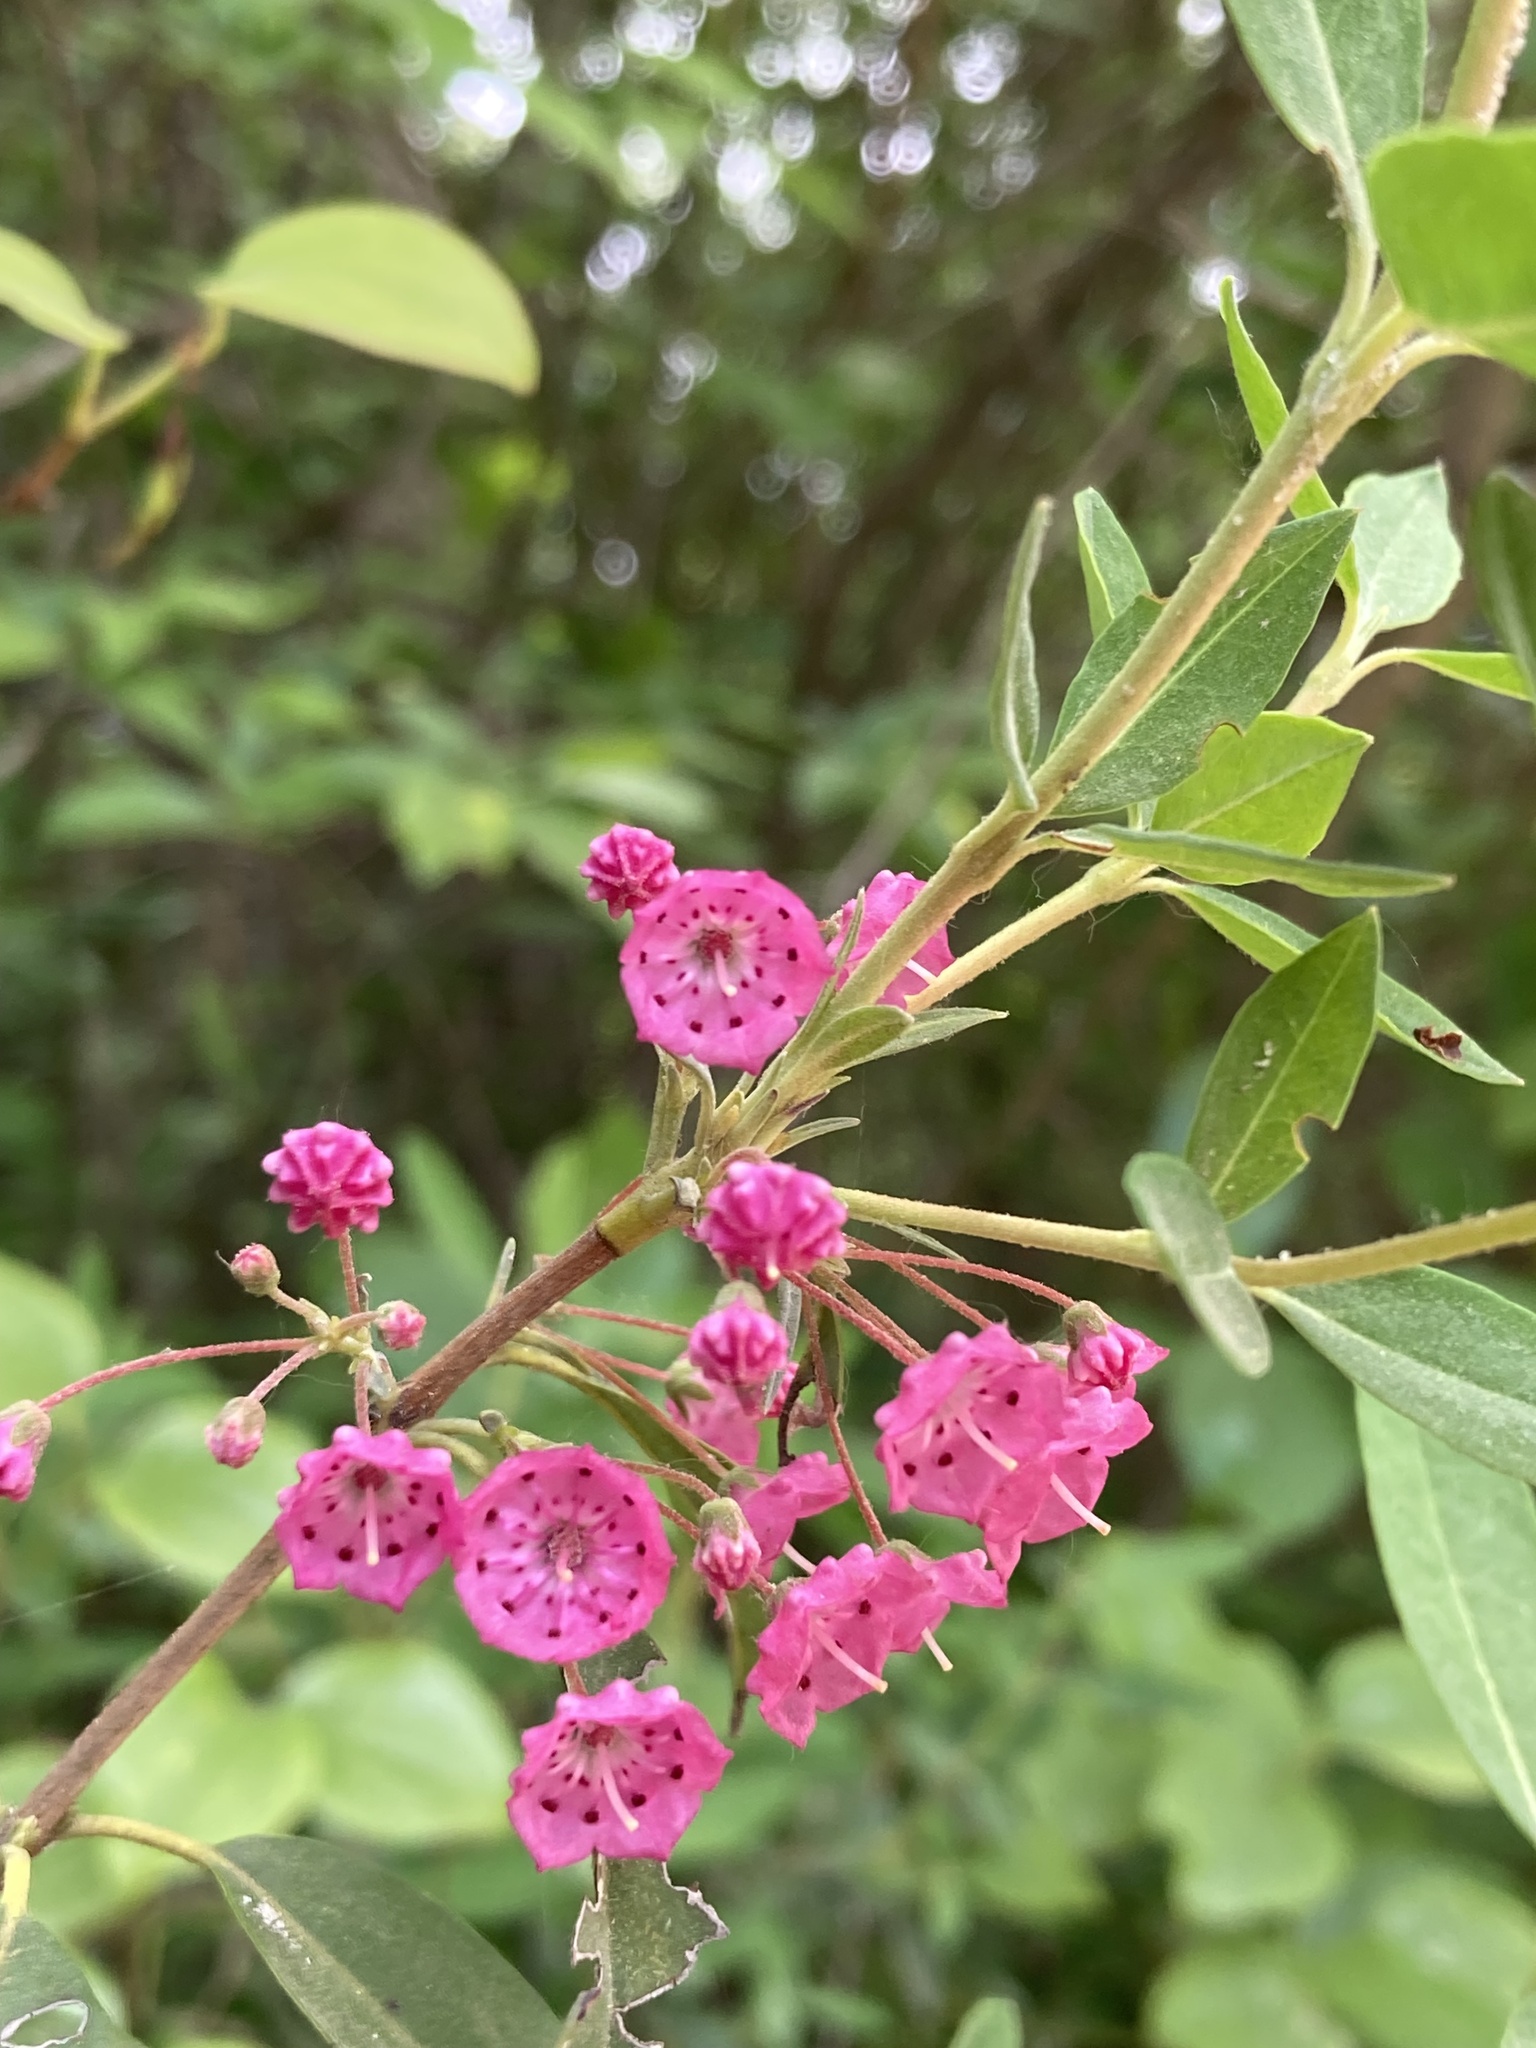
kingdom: Plantae
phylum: Tracheophyta
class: Magnoliopsida
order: Ericales
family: Ericaceae
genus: Kalmia
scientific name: Kalmia angustifolia
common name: Sheep-laurel
